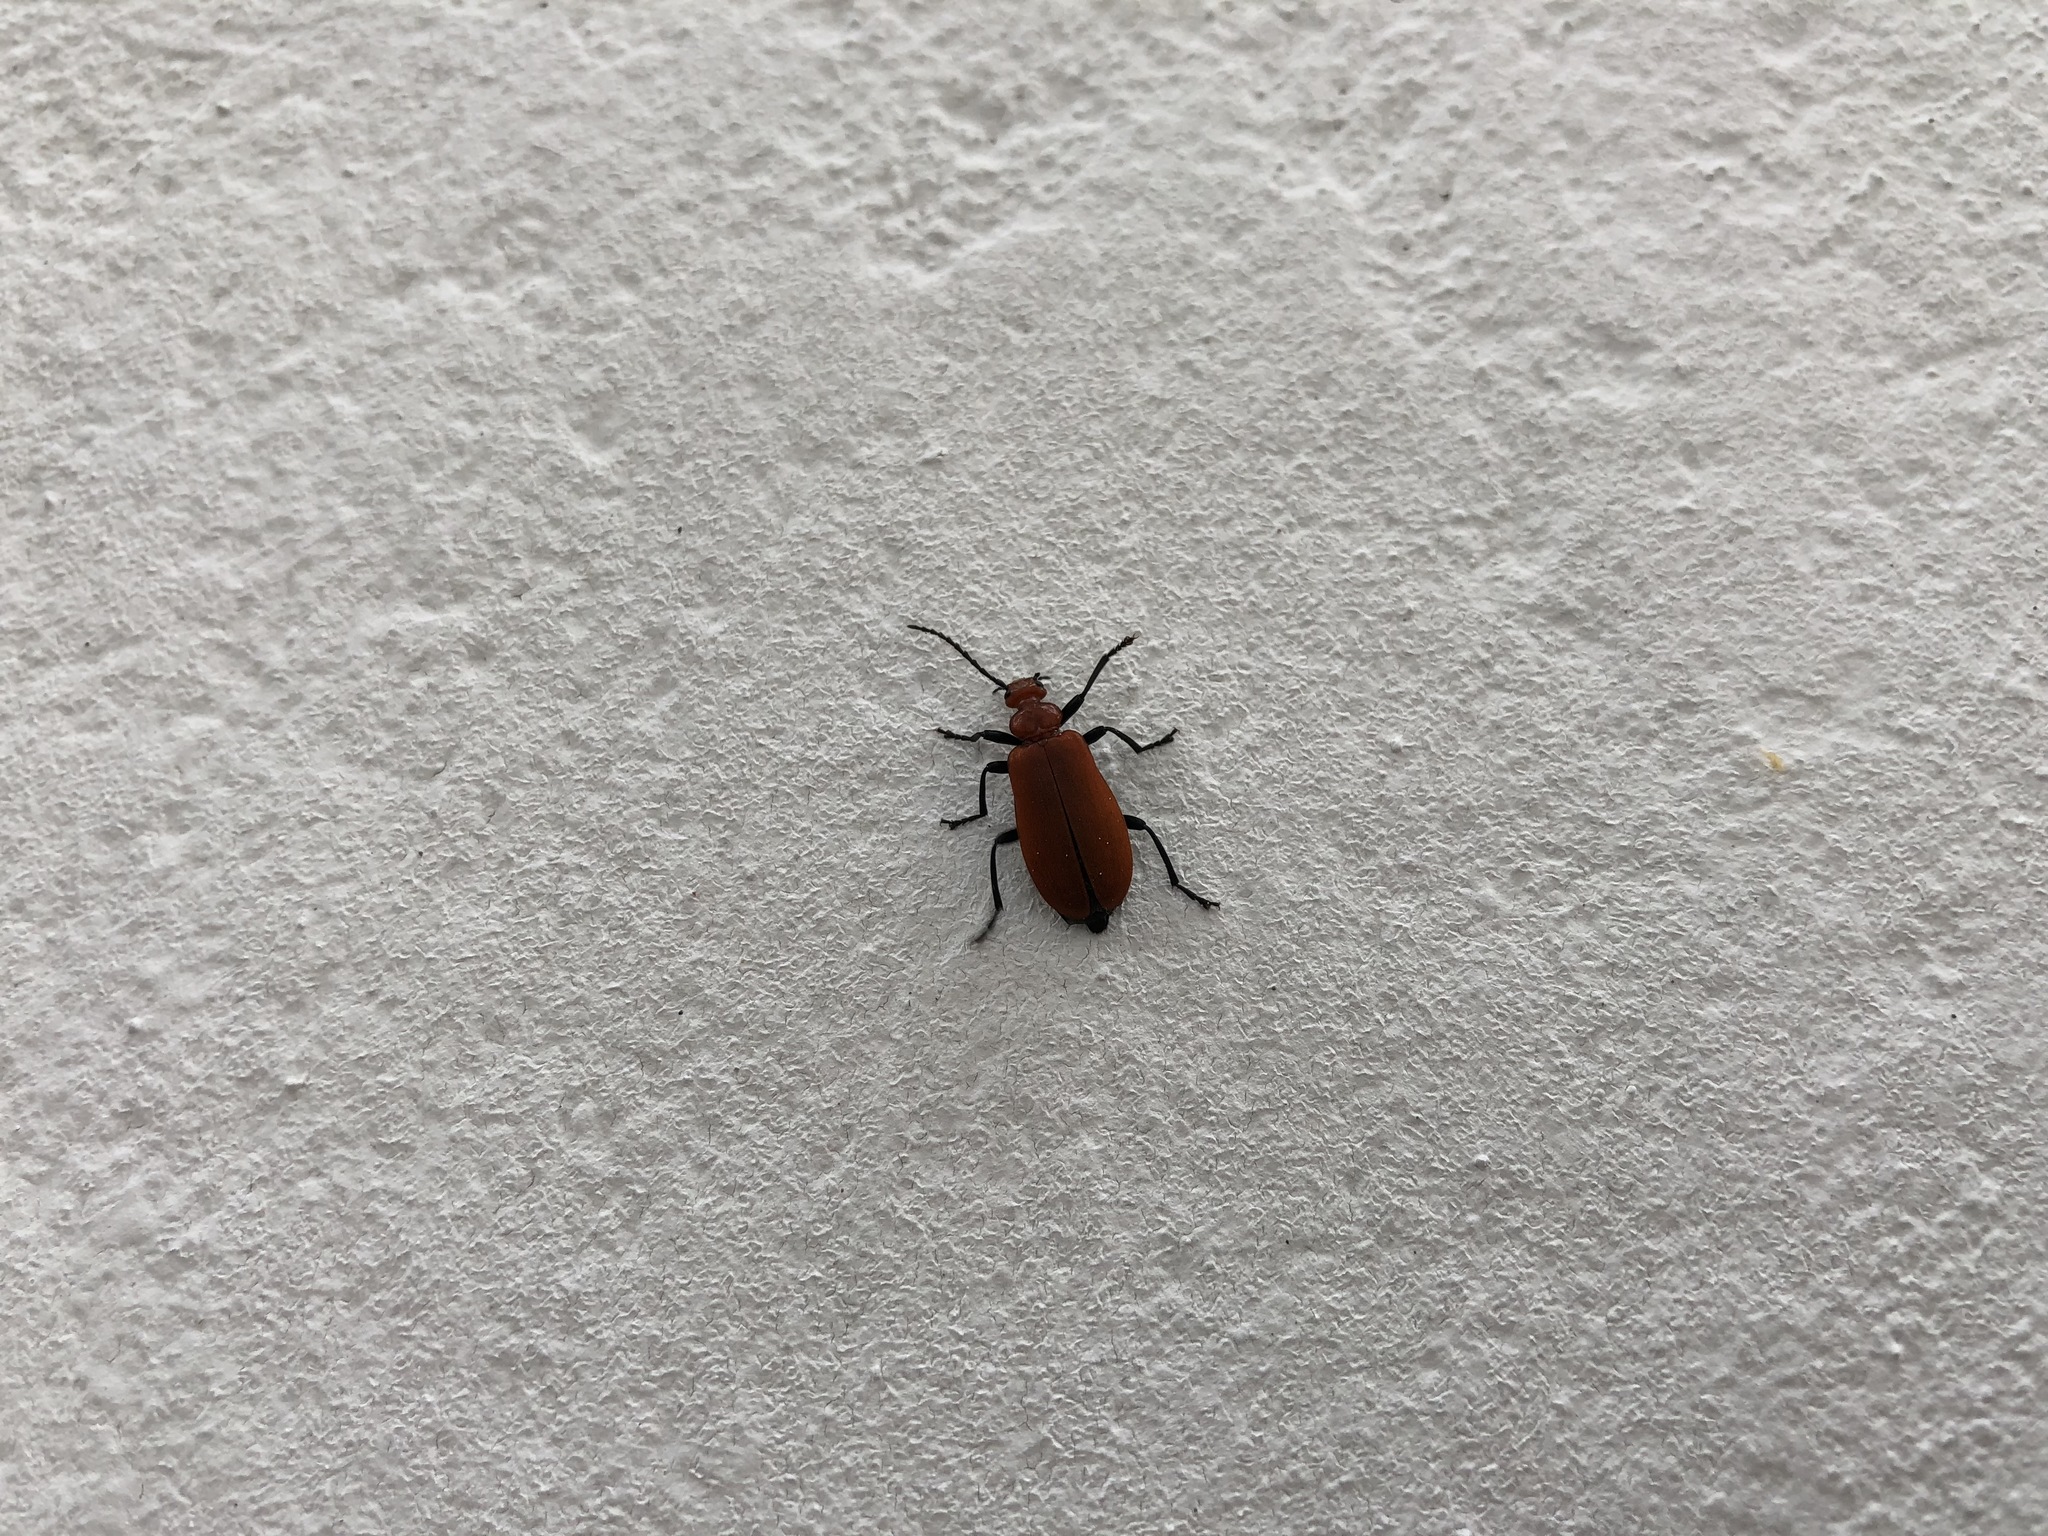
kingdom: Animalia
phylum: Arthropoda
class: Insecta
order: Coleoptera
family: Pyrochroidae
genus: Pyrochroa
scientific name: Pyrochroa serraticornis
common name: Red-headed cardinal beetle
